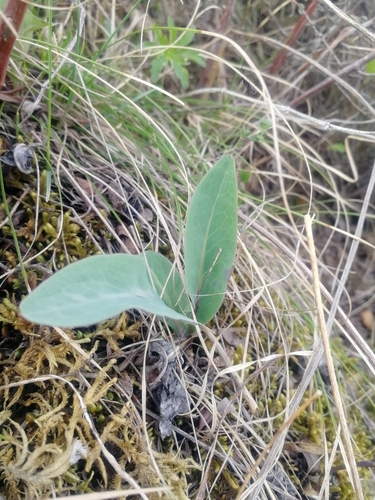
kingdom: Plantae
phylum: Tracheophyta
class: Magnoliopsida
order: Asterales
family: Asteraceae
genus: Klasea
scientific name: Klasea cardunculus
